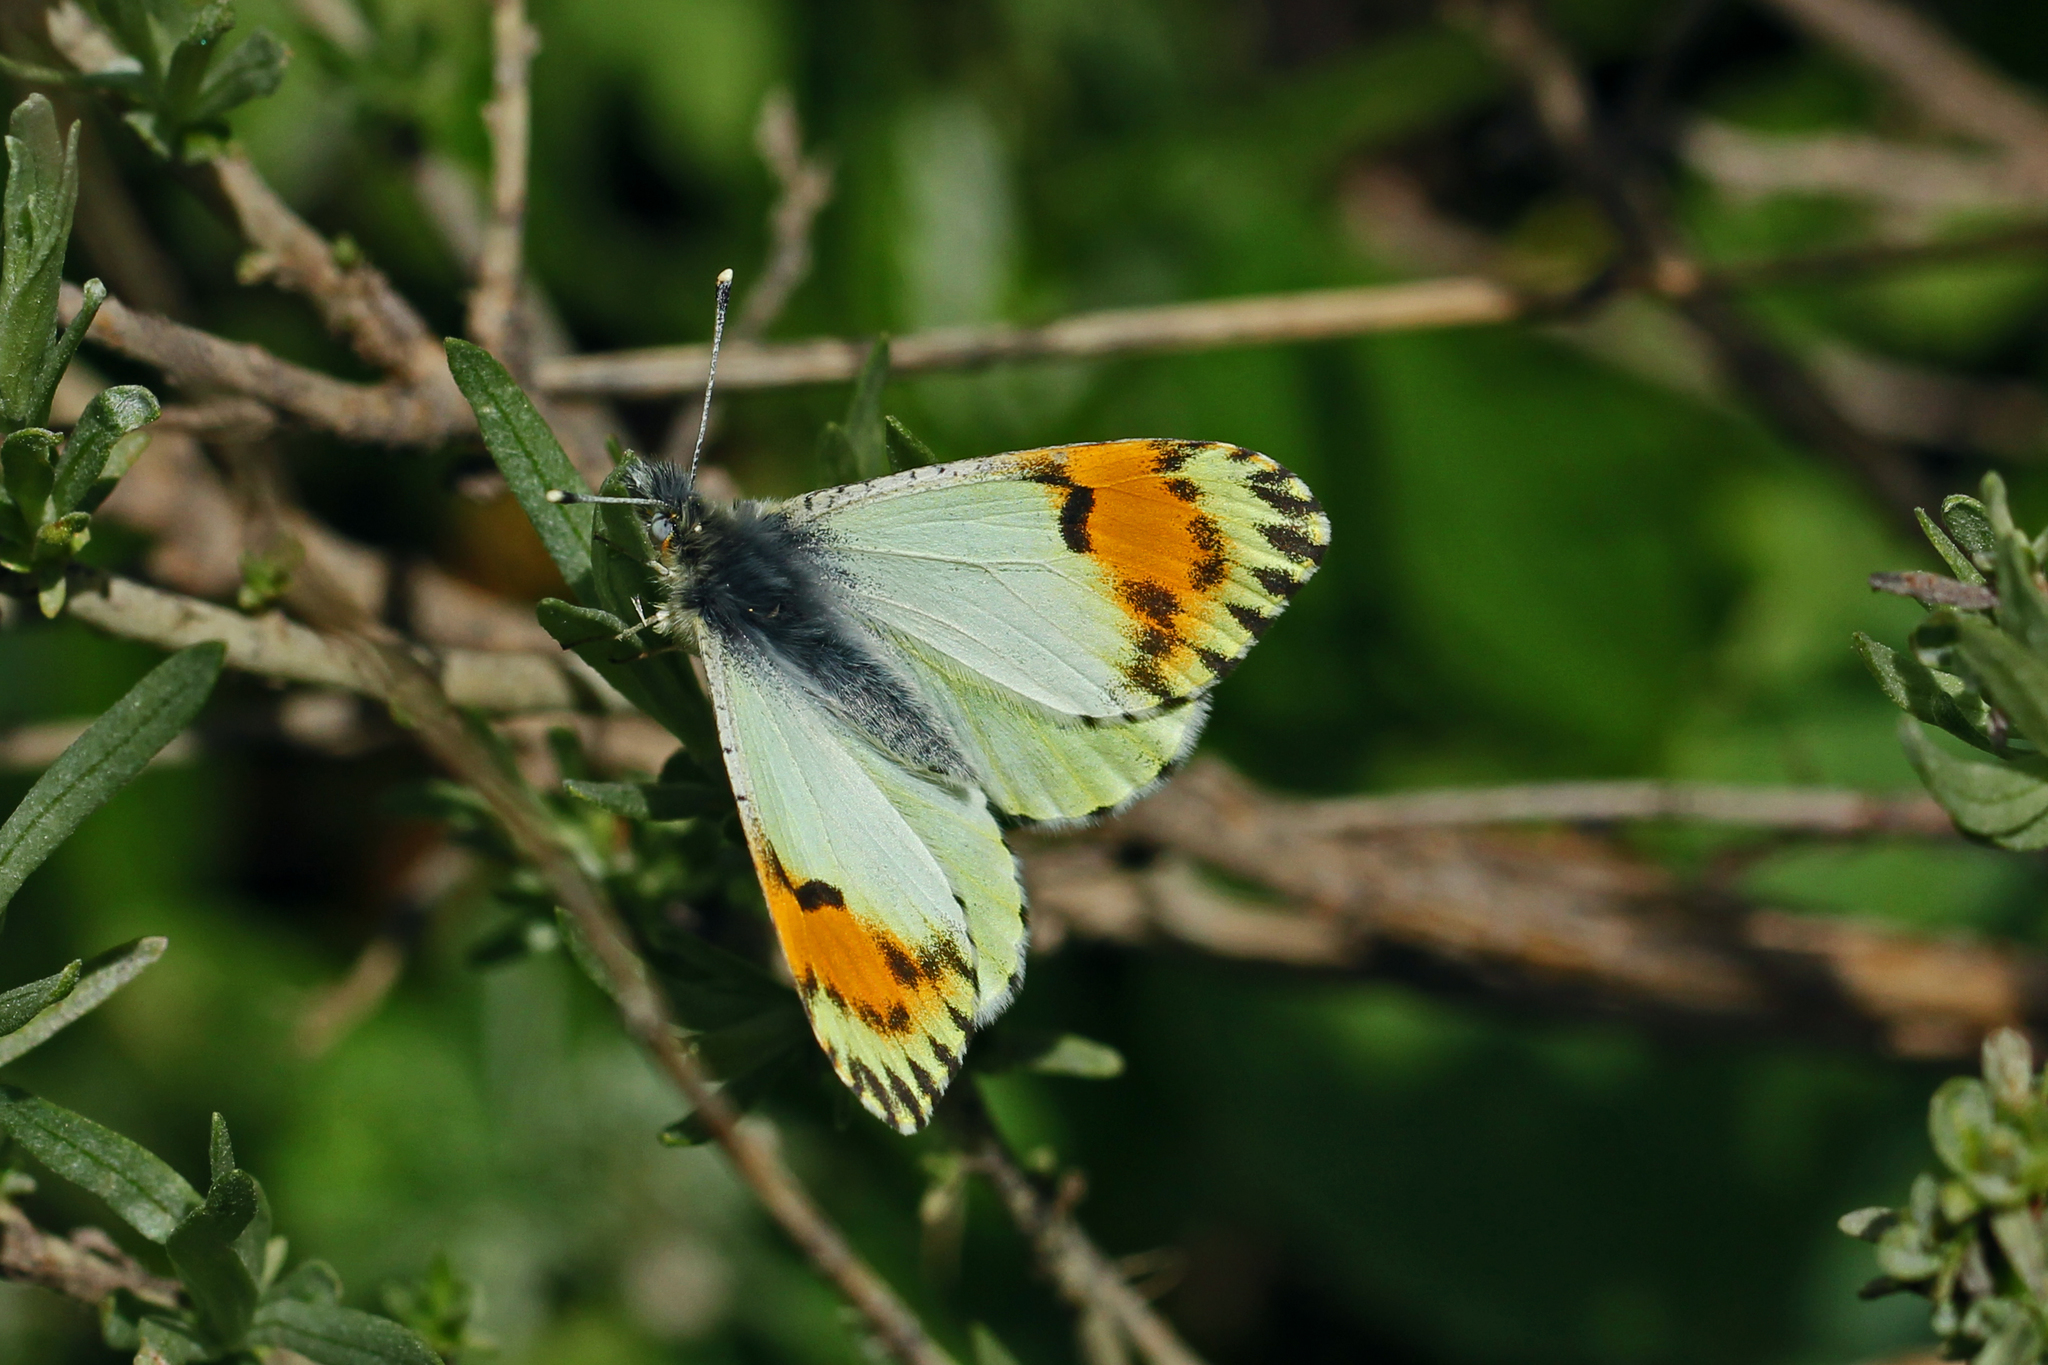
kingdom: Animalia
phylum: Arthropoda
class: Insecta
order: Lepidoptera
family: Pieridae
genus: Anthocharis
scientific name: Anthocharis julia
